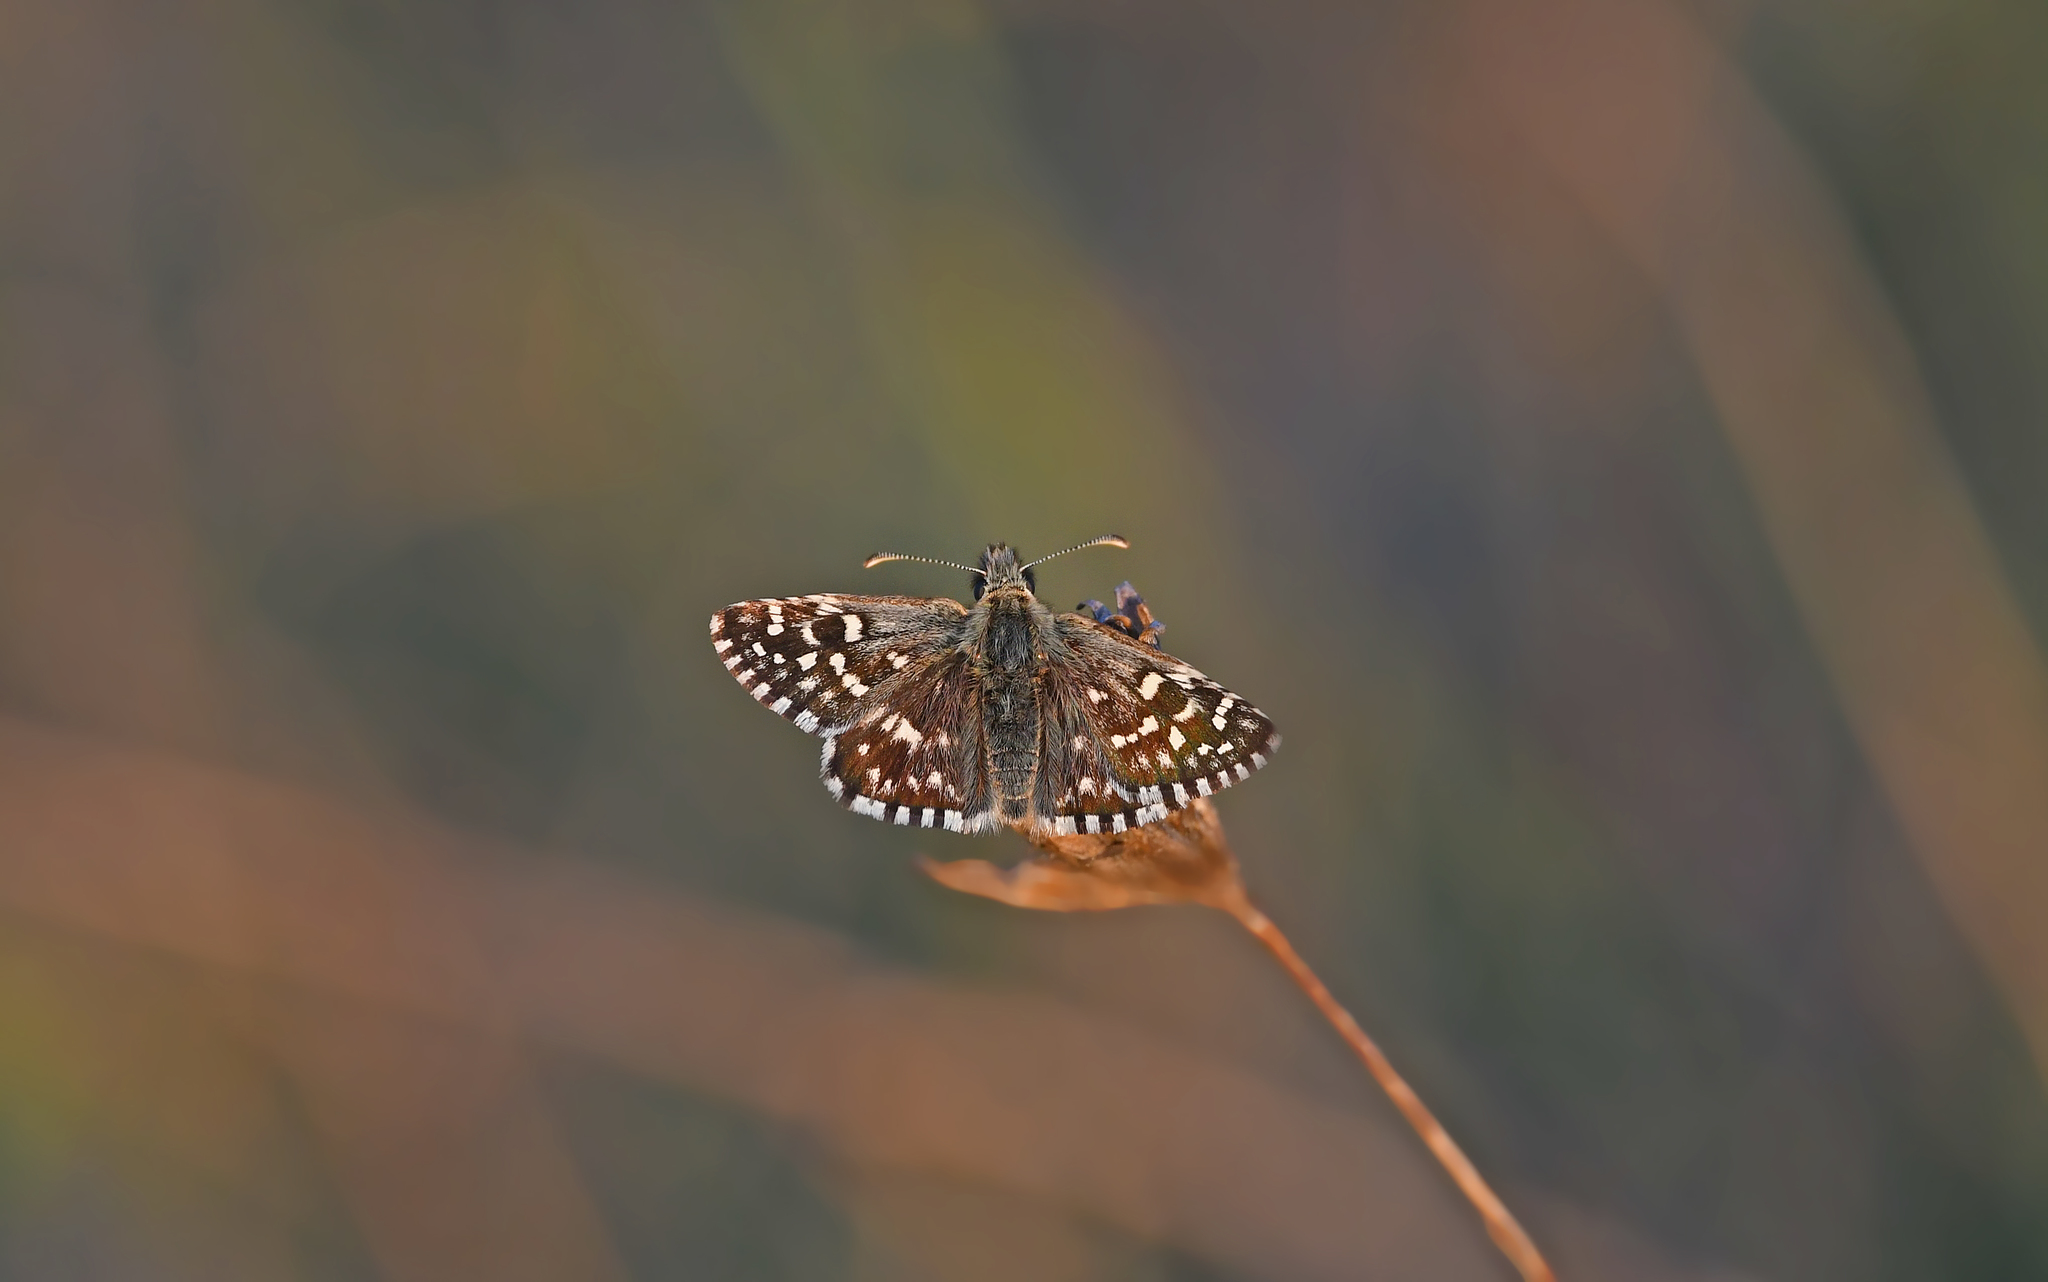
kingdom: Animalia
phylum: Arthropoda
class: Insecta
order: Lepidoptera
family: Hesperiidae
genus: Pyrgus
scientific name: Pyrgus malvae
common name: Grizzled skipper
